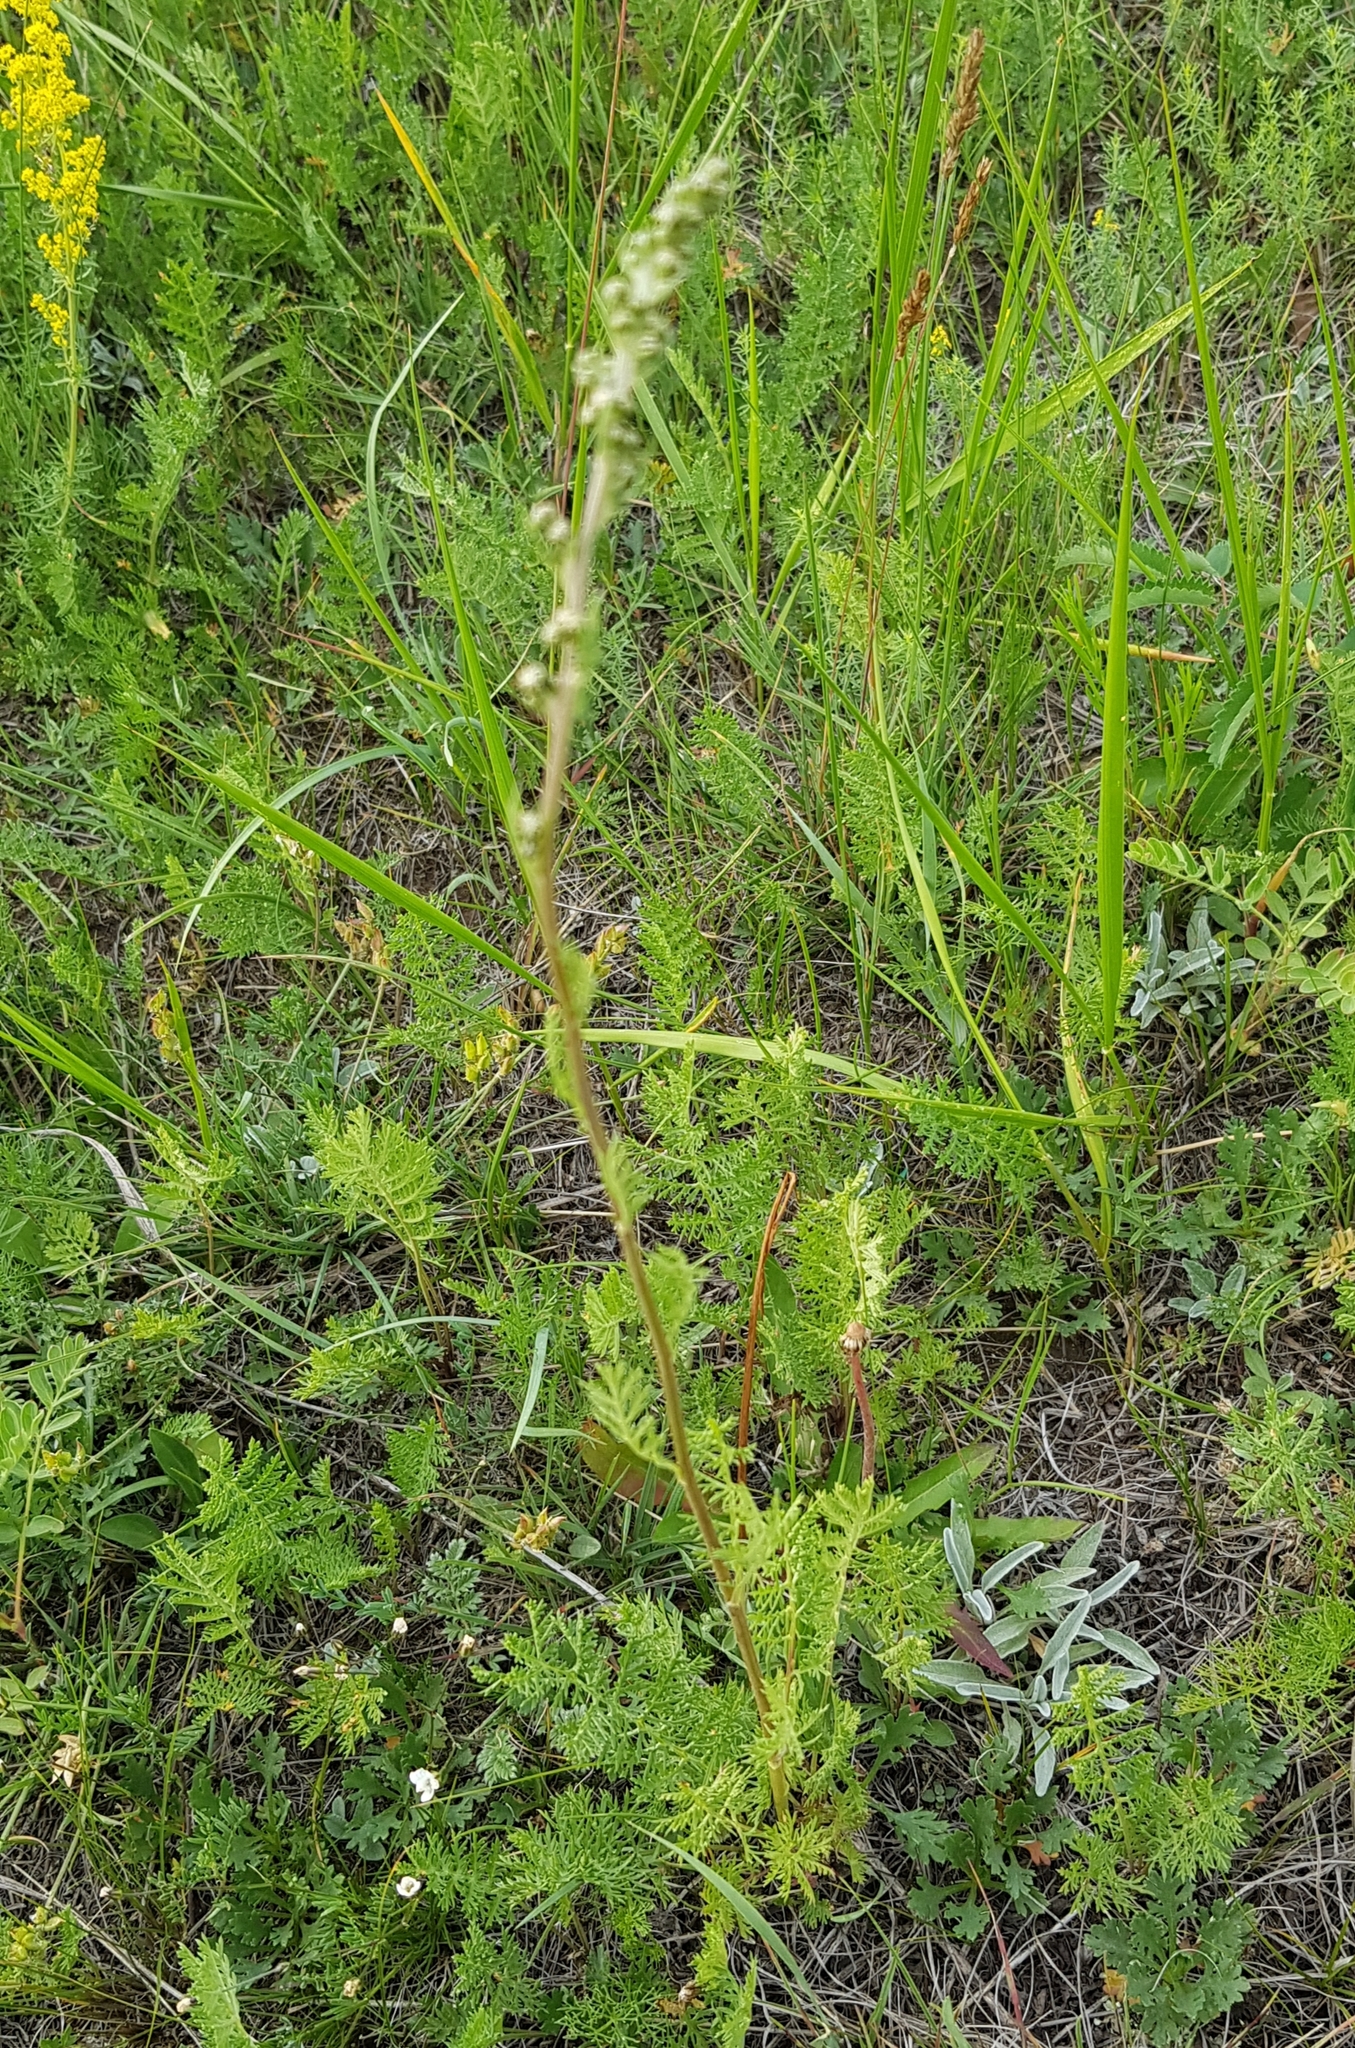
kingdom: Plantae
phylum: Tracheophyta
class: Magnoliopsida
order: Asterales
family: Asteraceae
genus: Artemisia
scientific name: Artemisia tanacetifolia
